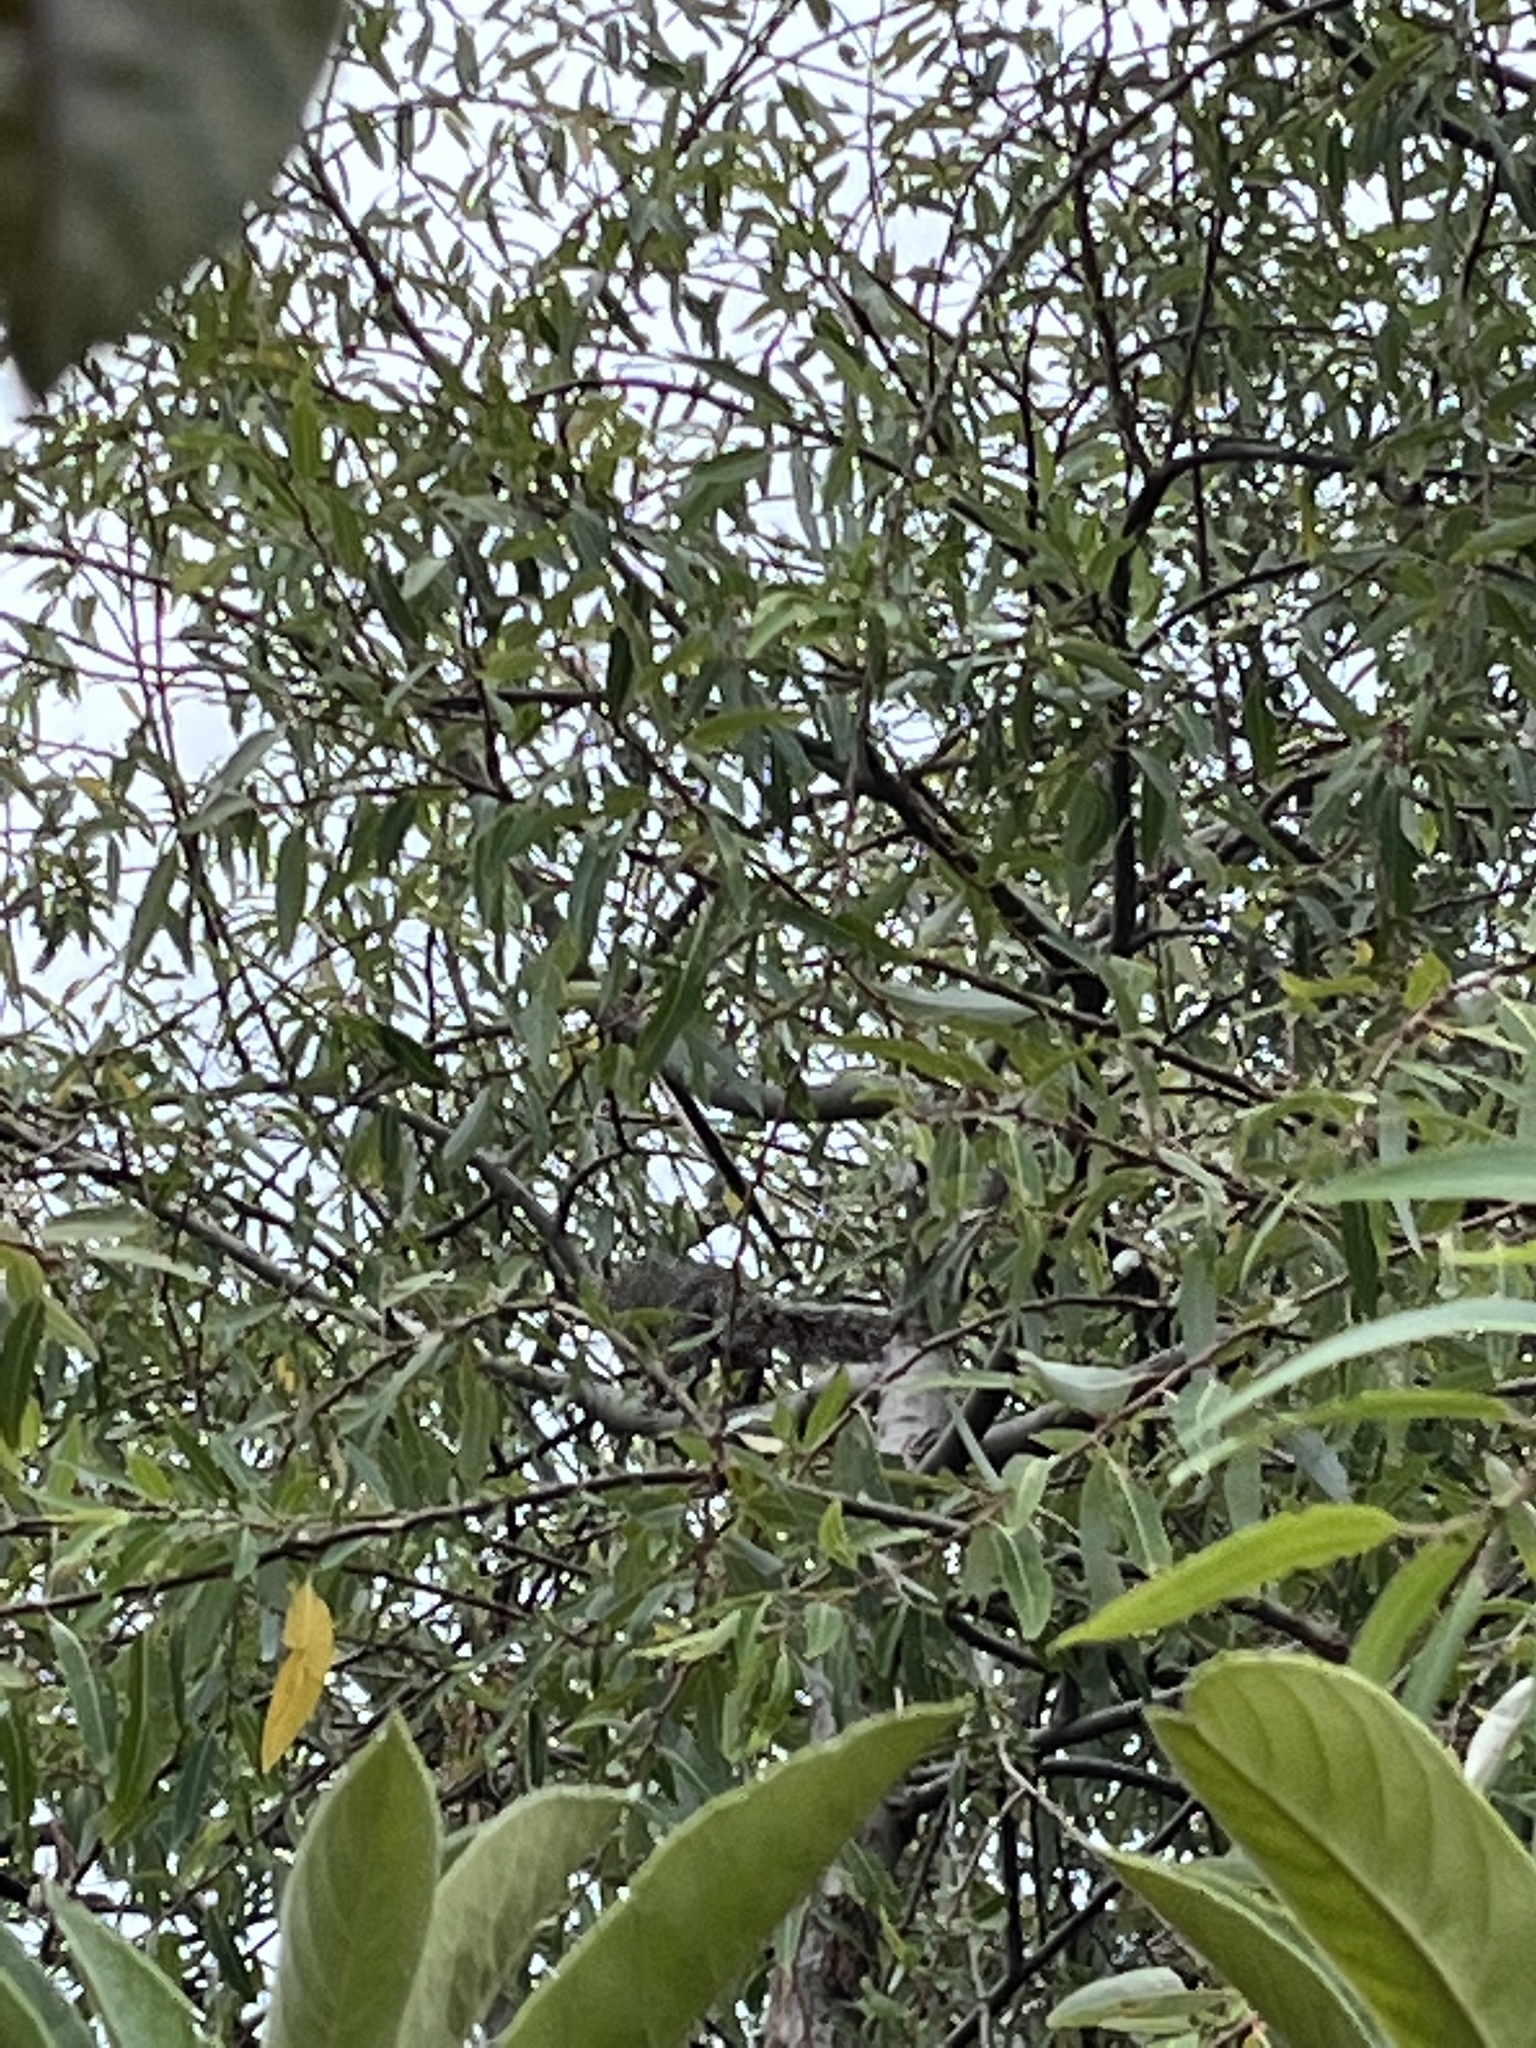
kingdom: Animalia
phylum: Chordata
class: Mammalia
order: Rodentia
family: Sciuridae
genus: Sciurus
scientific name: Sciurus aureogaster
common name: Red-bellied squirrel
